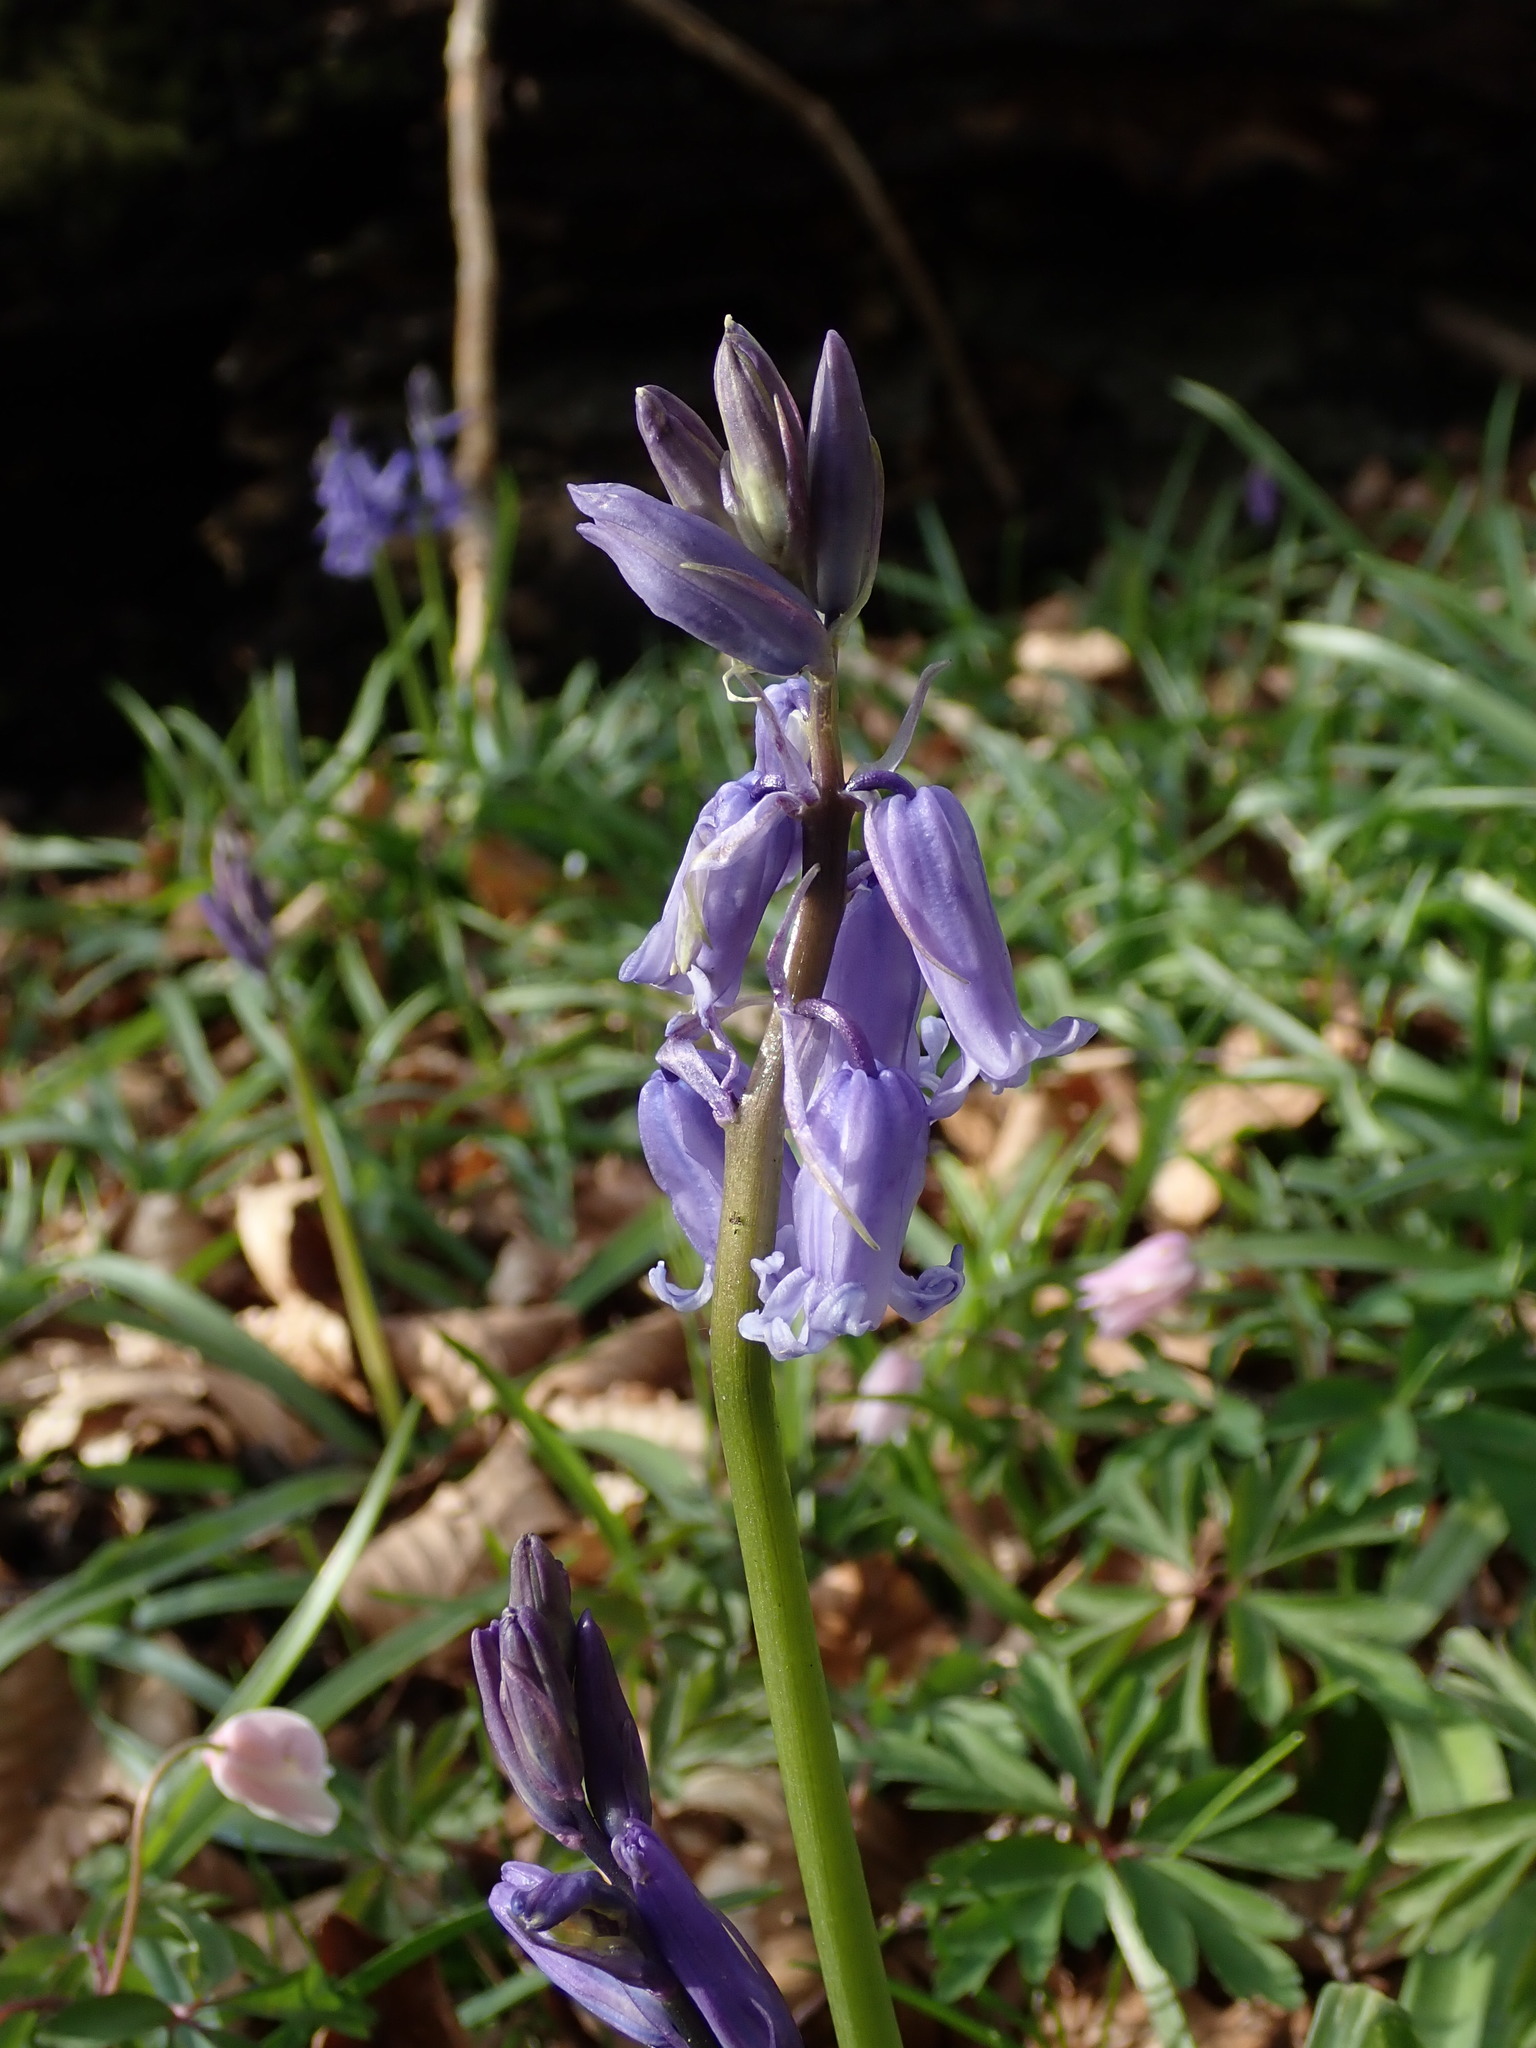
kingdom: Plantae
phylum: Tracheophyta
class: Liliopsida
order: Asparagales
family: Asparagaceae
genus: Hyacinthoides
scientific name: Hyacinthoides massartiana
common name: Hyacinthoides
